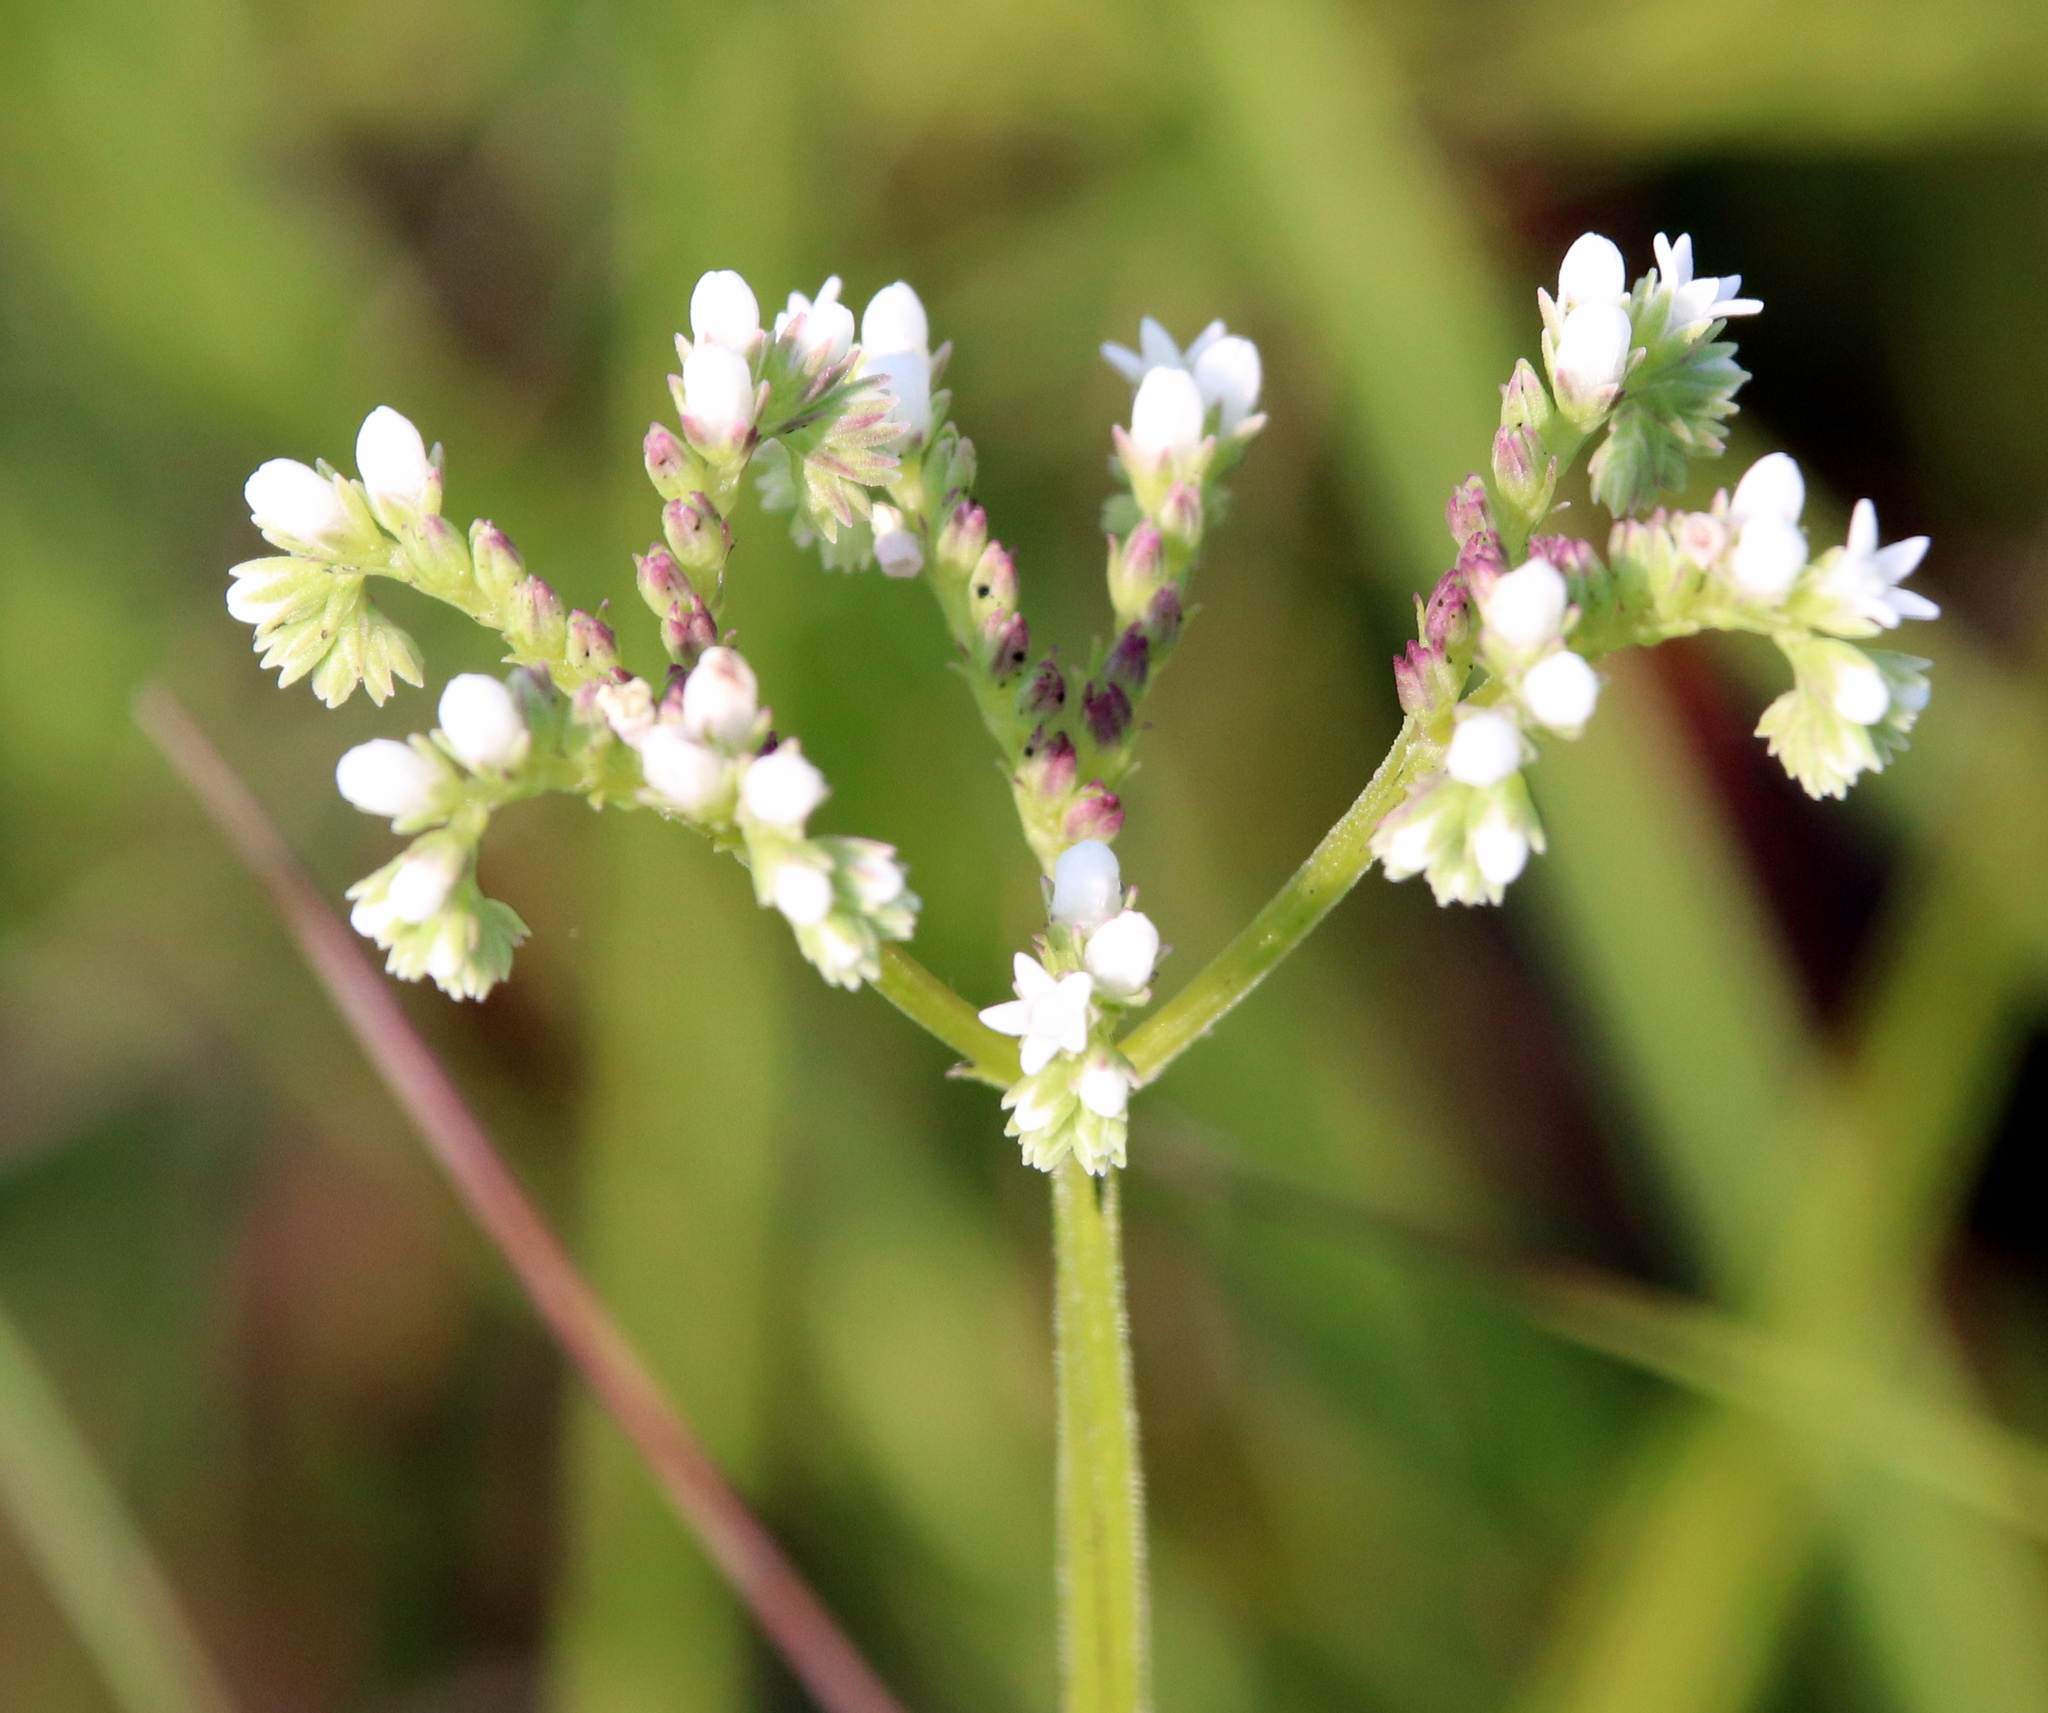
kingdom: Plantae
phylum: Tracheophyta
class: Magnoliopsida
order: Gentianales
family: Loganiaceae
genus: Mitreola
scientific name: Mitreola sessilifolia
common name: Swamp hornpod
